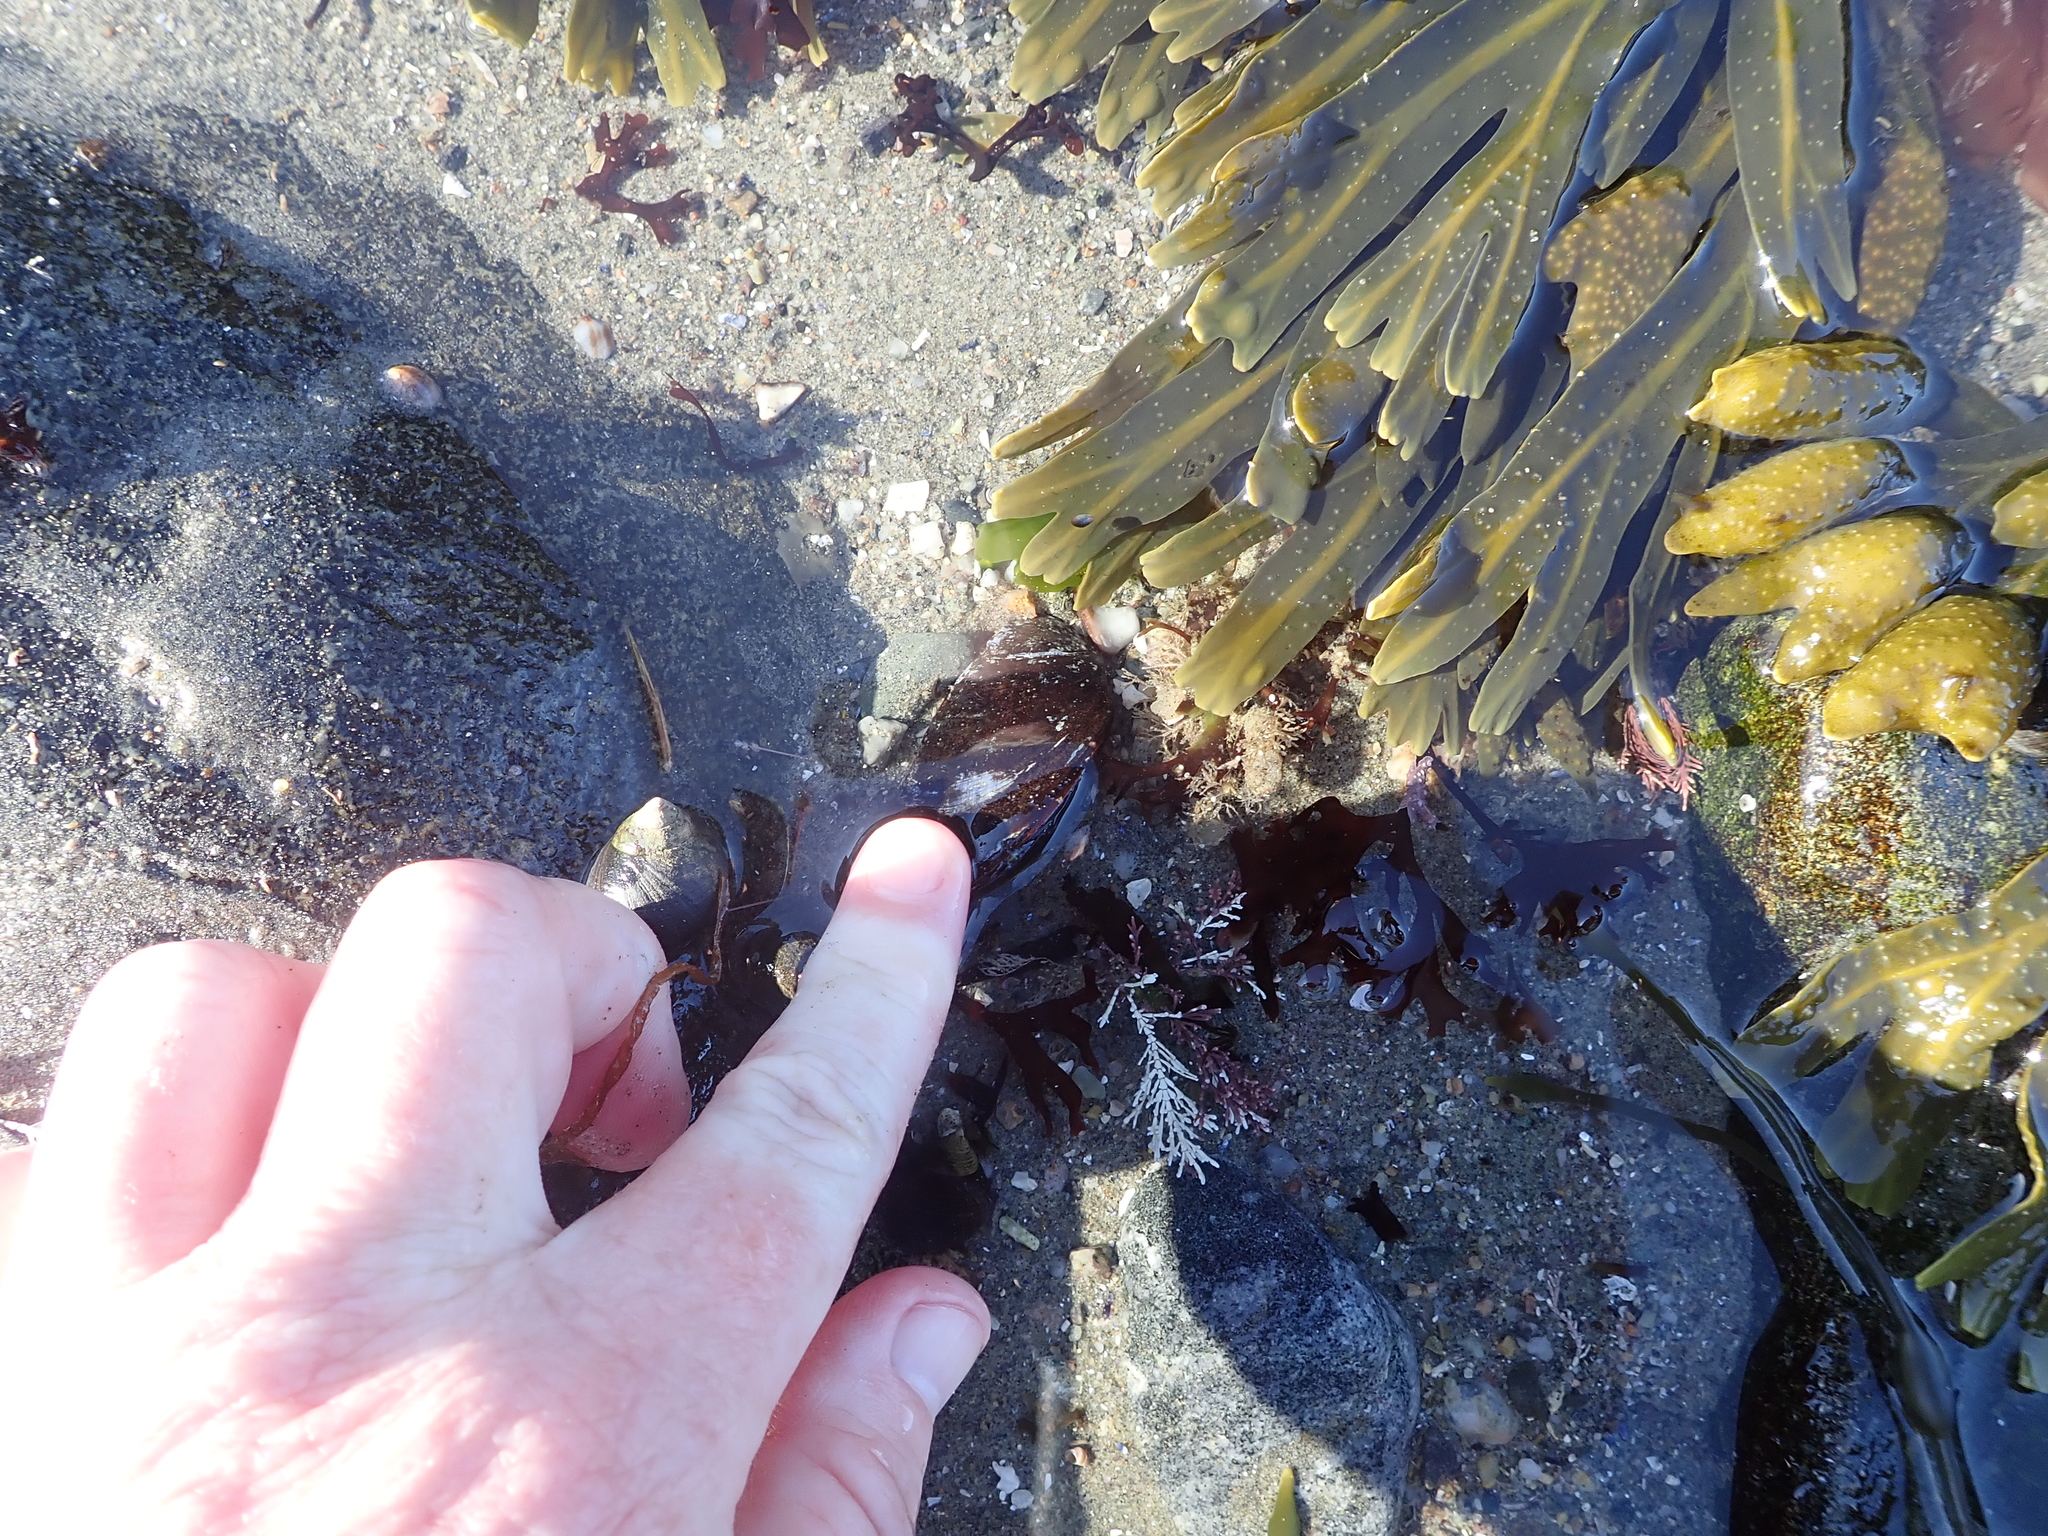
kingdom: Animalia
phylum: Mollusca
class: Bivalvia
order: Mytilida
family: Mytilidae
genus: Mytilus
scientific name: Mytilus edulis
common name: Blue mussel
